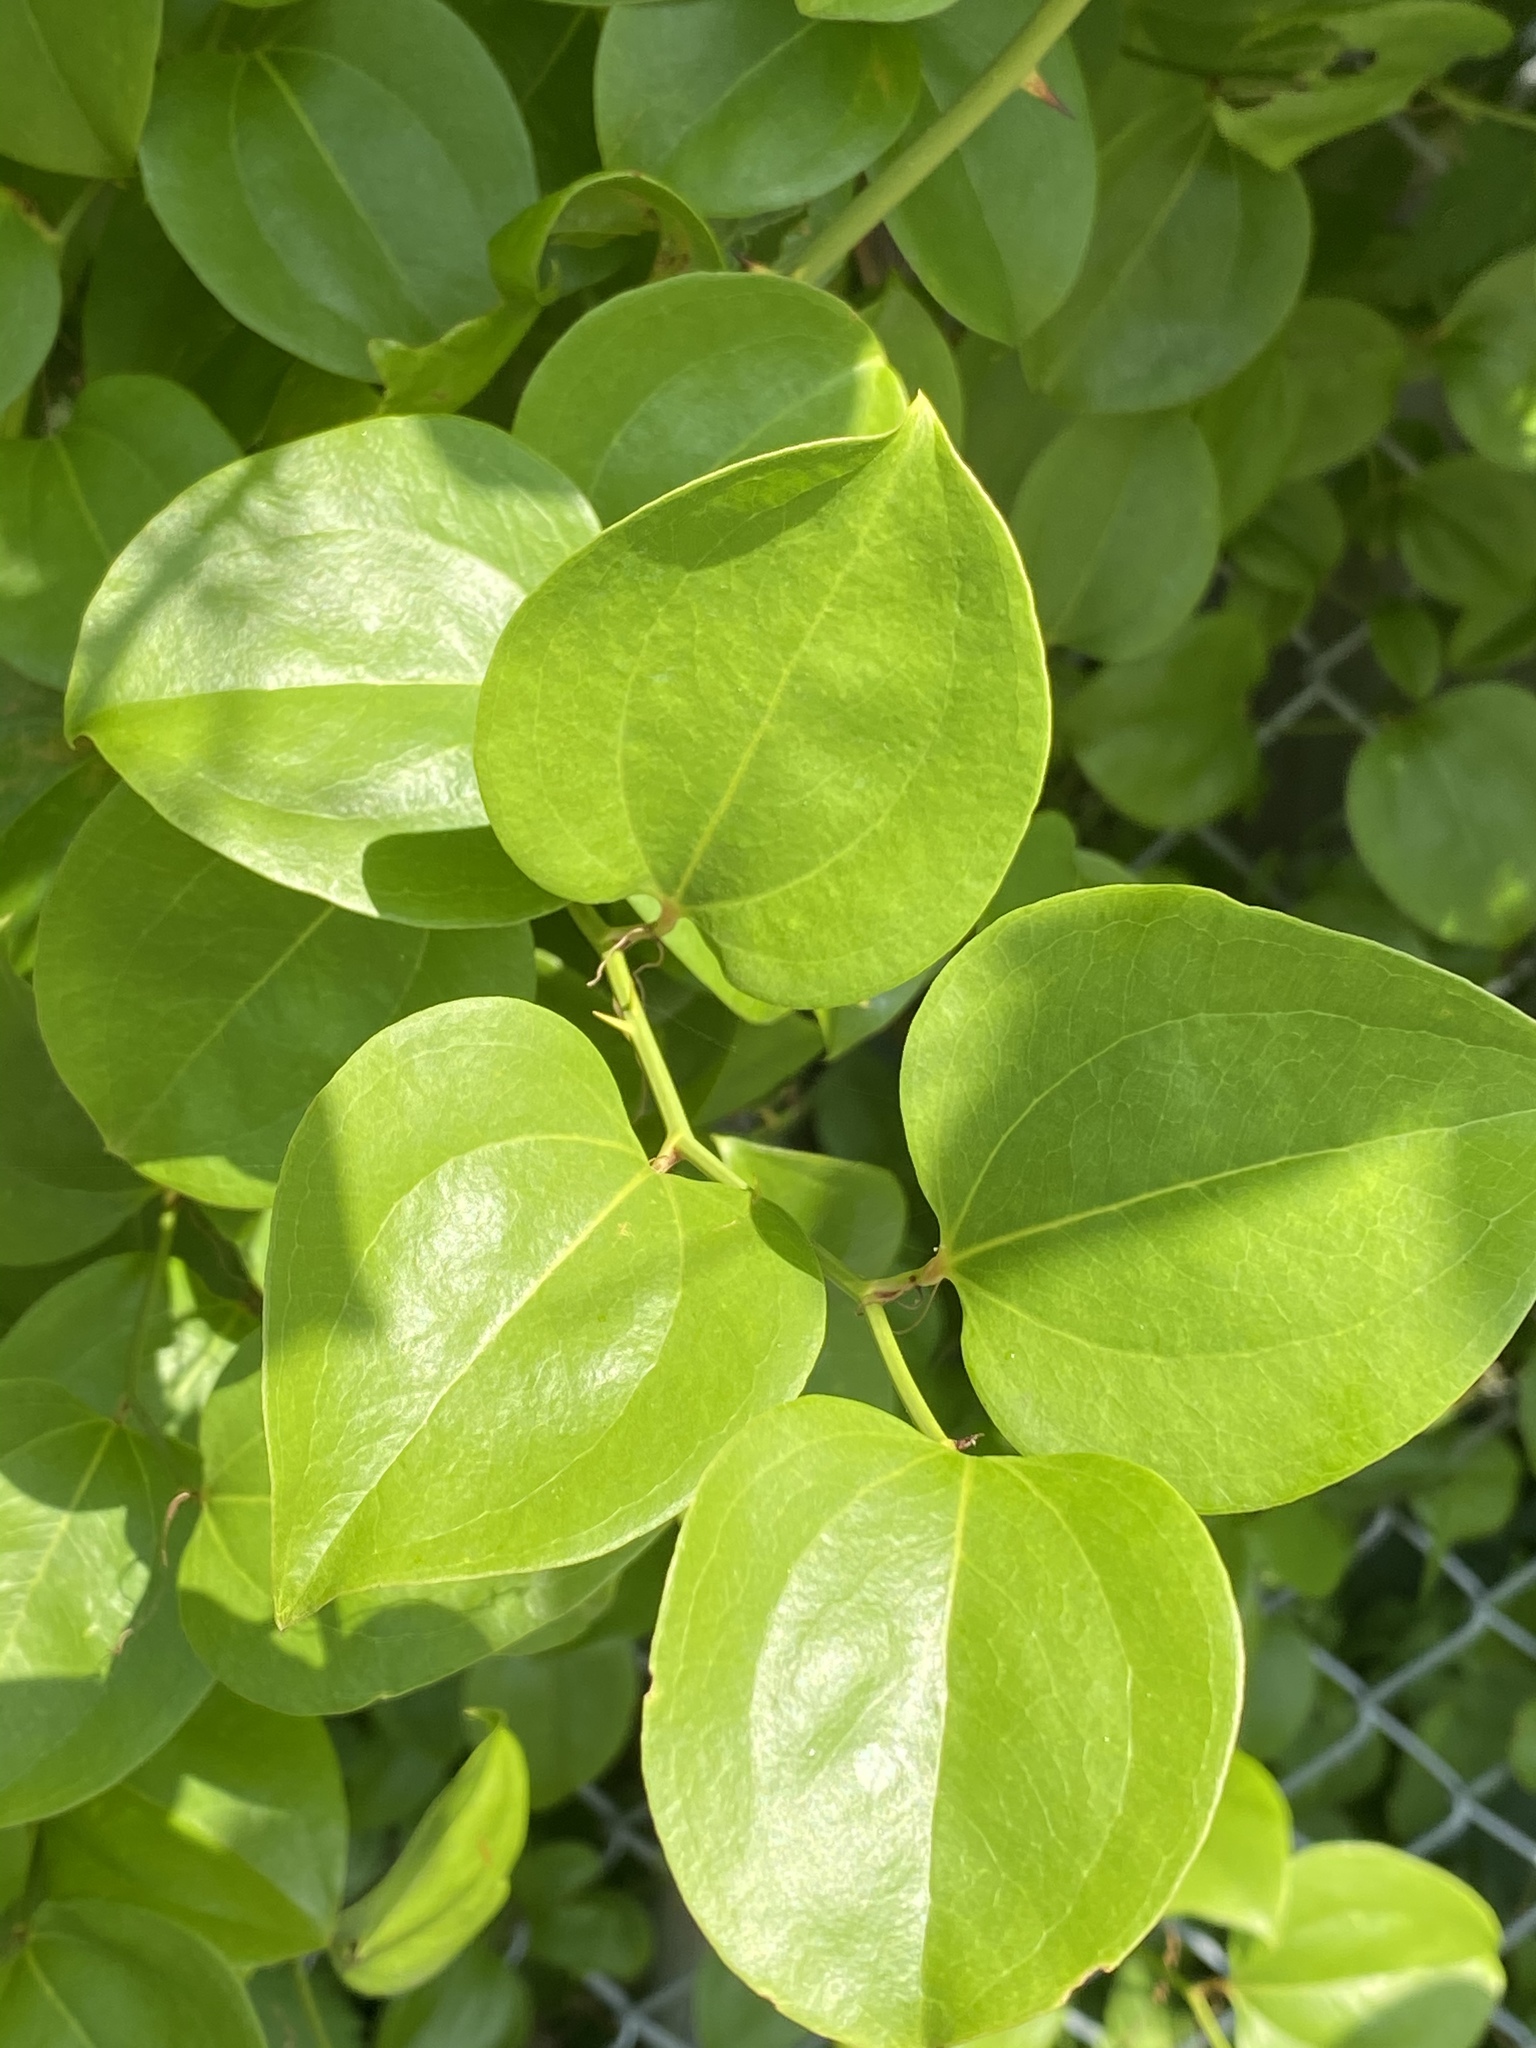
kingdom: Plantae
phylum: Tracheophyta
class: Liliopsida
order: Liliales
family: Smilacaceae
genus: Smilax
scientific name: Smilax rotundifolia
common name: Bullbriar
